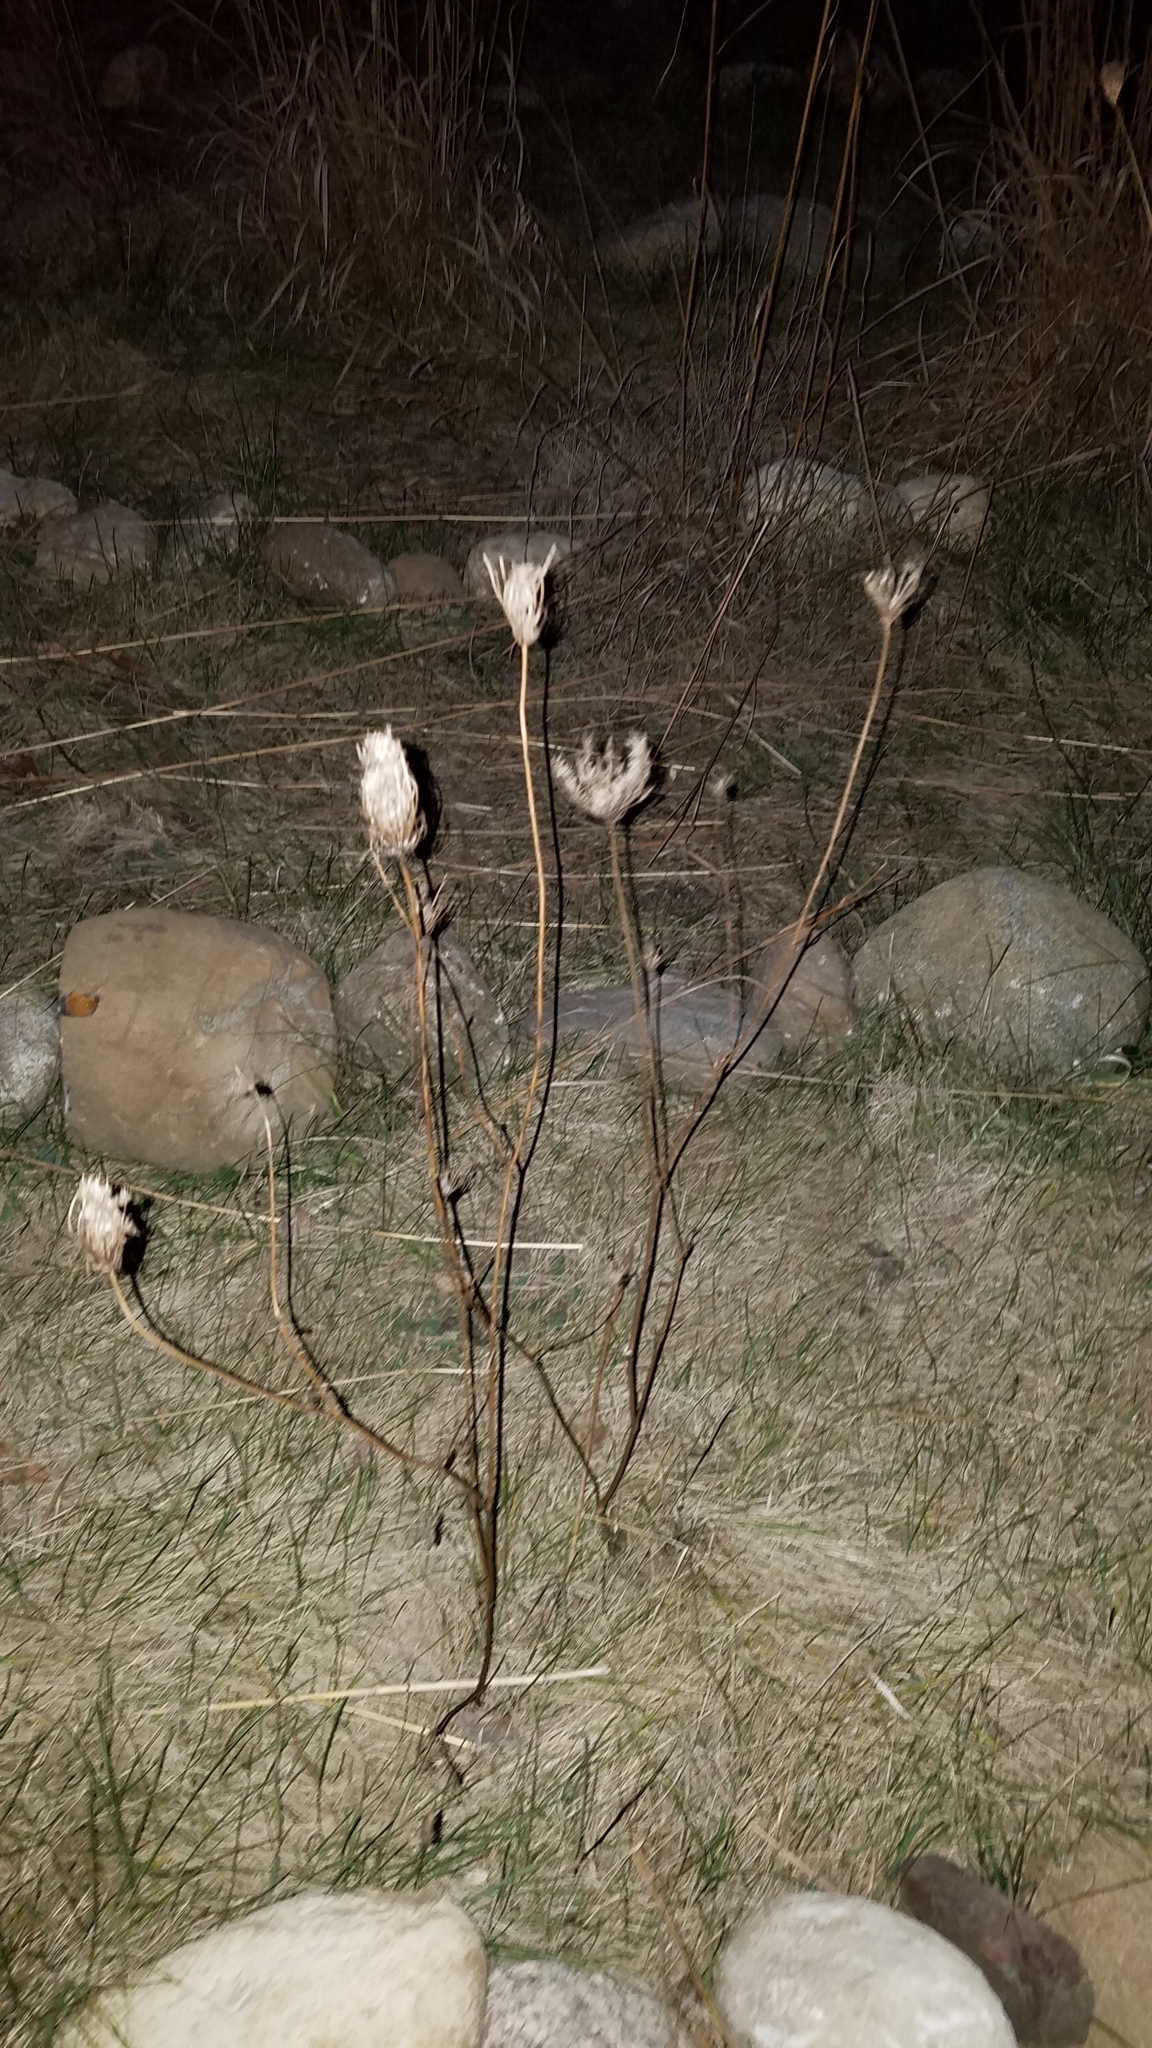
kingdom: Plantae
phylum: Tracheophyta
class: Magnoliopsida
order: Apiales
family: Apiaceae
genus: Daucus
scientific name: Daucus carota
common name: Wild carrot
